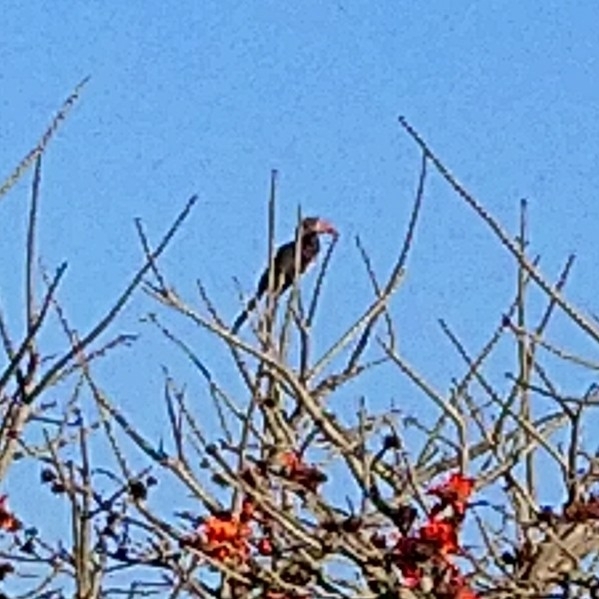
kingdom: Animalia
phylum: Chordata
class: Aves
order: Bucerotiformes
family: Bucerotidae
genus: Lophoceros
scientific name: Lophoceros alboterminatus
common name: Crowned hornbill
